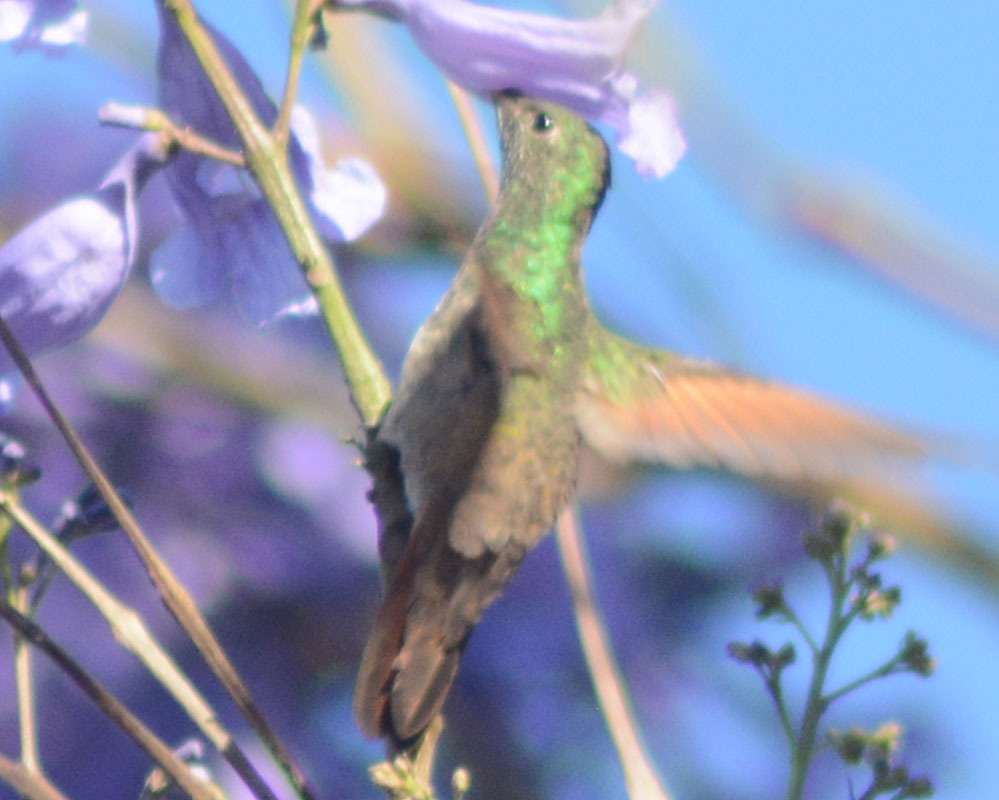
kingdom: Animalia
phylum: Chordata
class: Aves
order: Apodiformes
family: Trochilidae
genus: Saucerottia
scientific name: Saucerottia beryllina
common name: Berylline hummingbird
